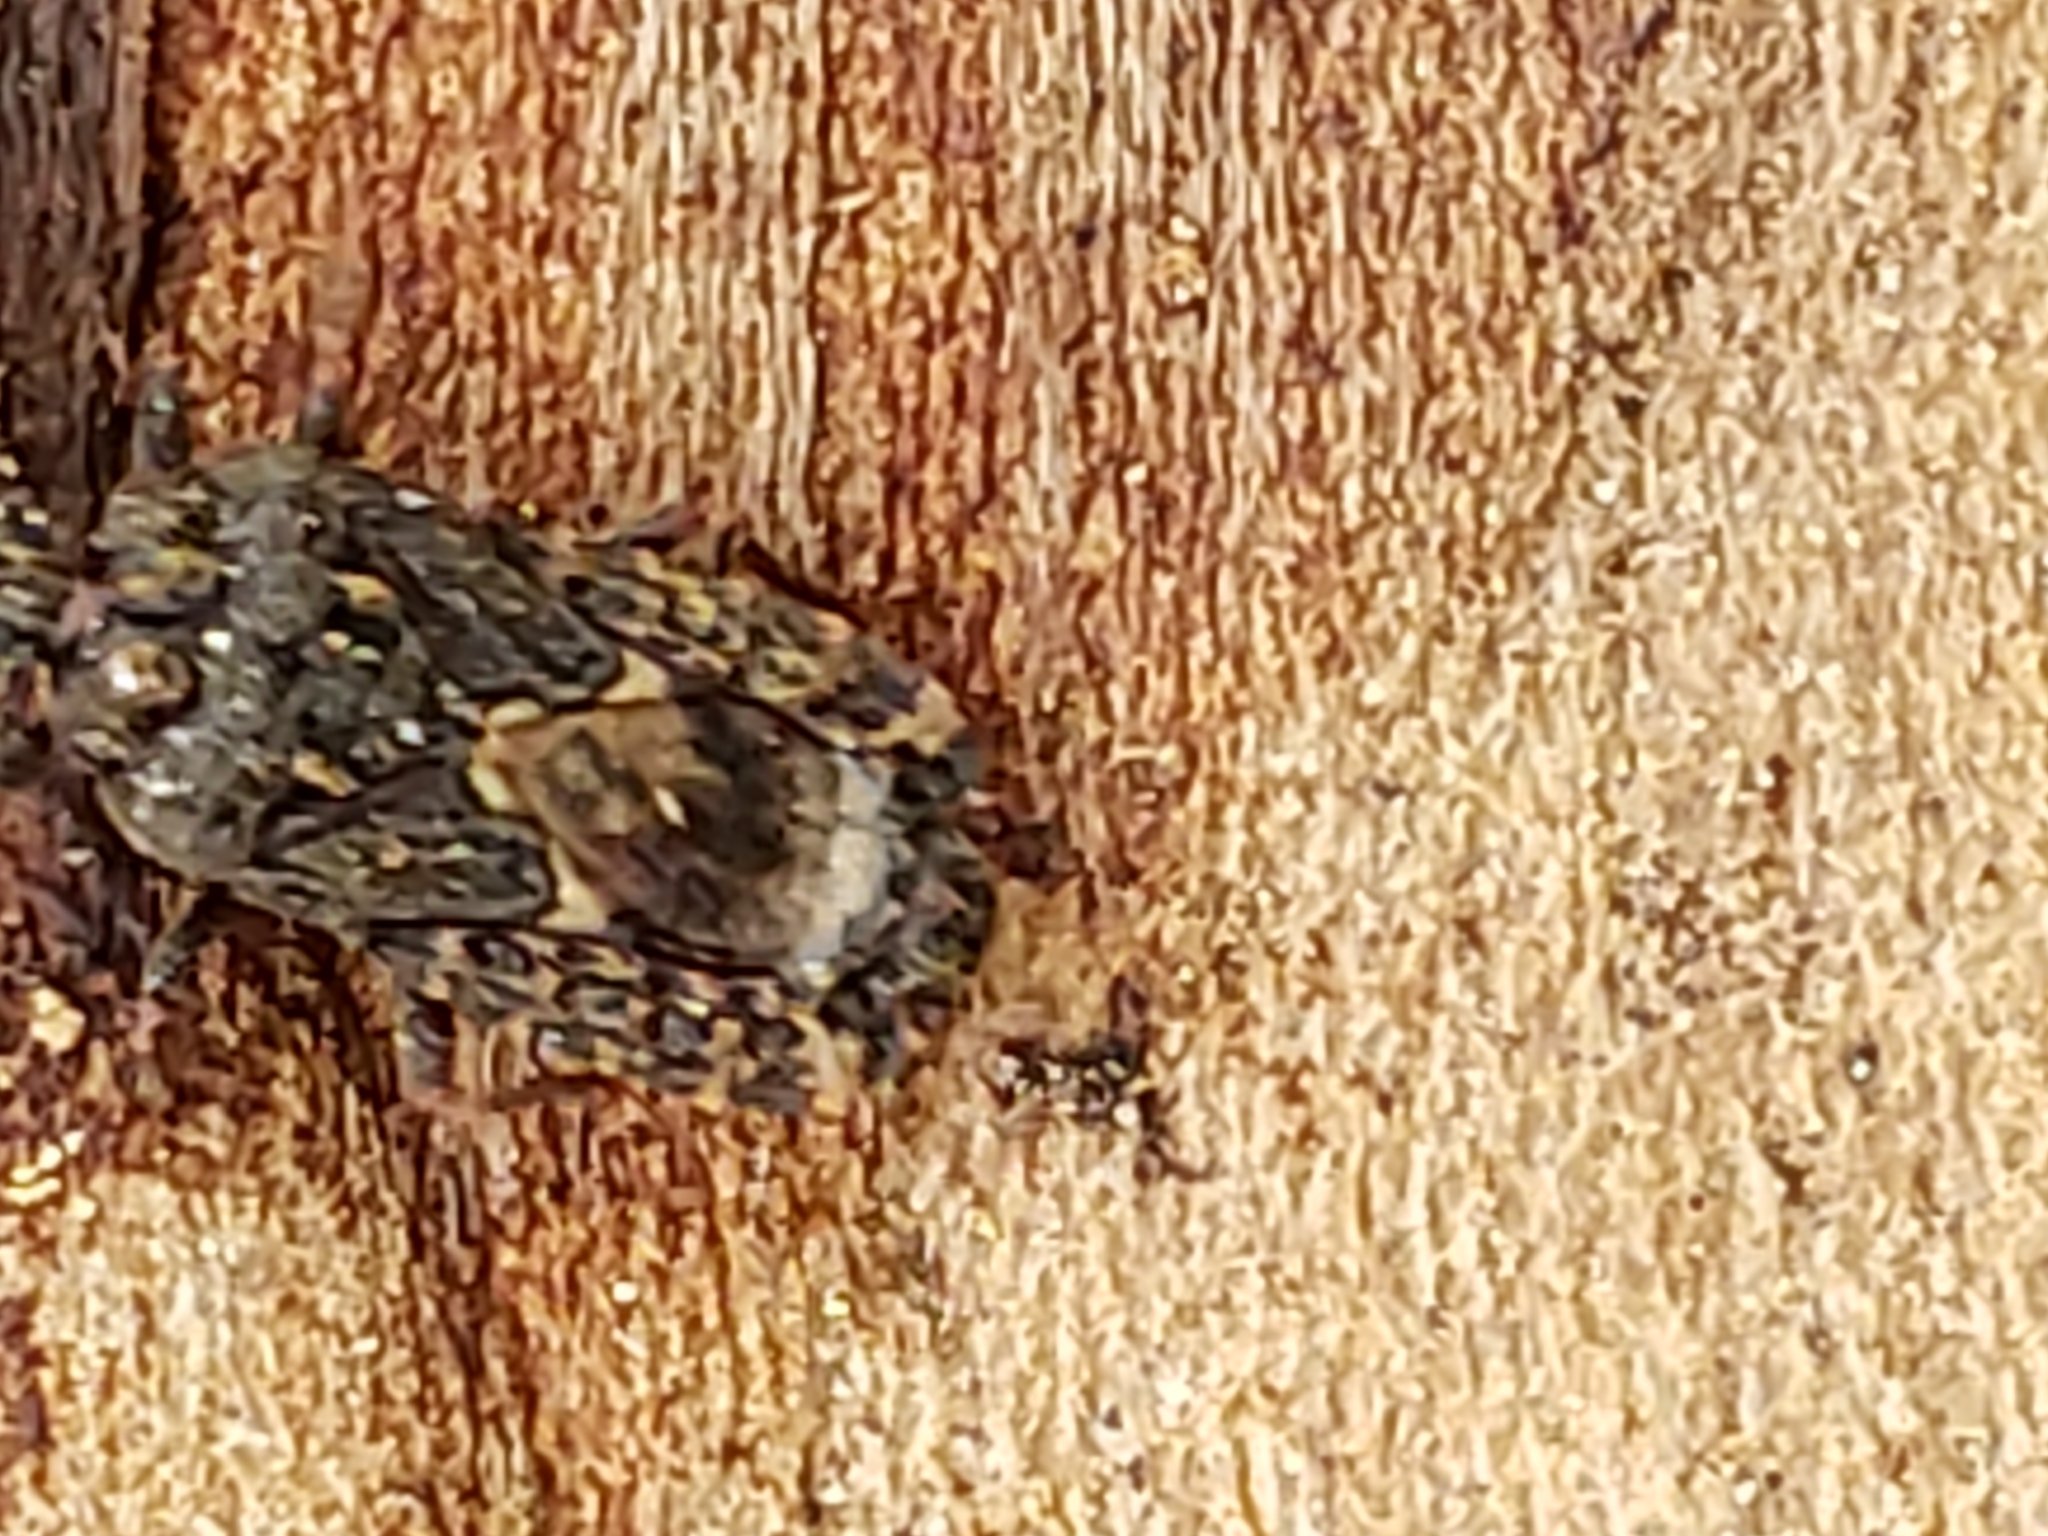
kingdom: Animalia
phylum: Arthropoda
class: Insecta
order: Hemiptera
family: Aradidae
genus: Mezira
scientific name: Mezira
